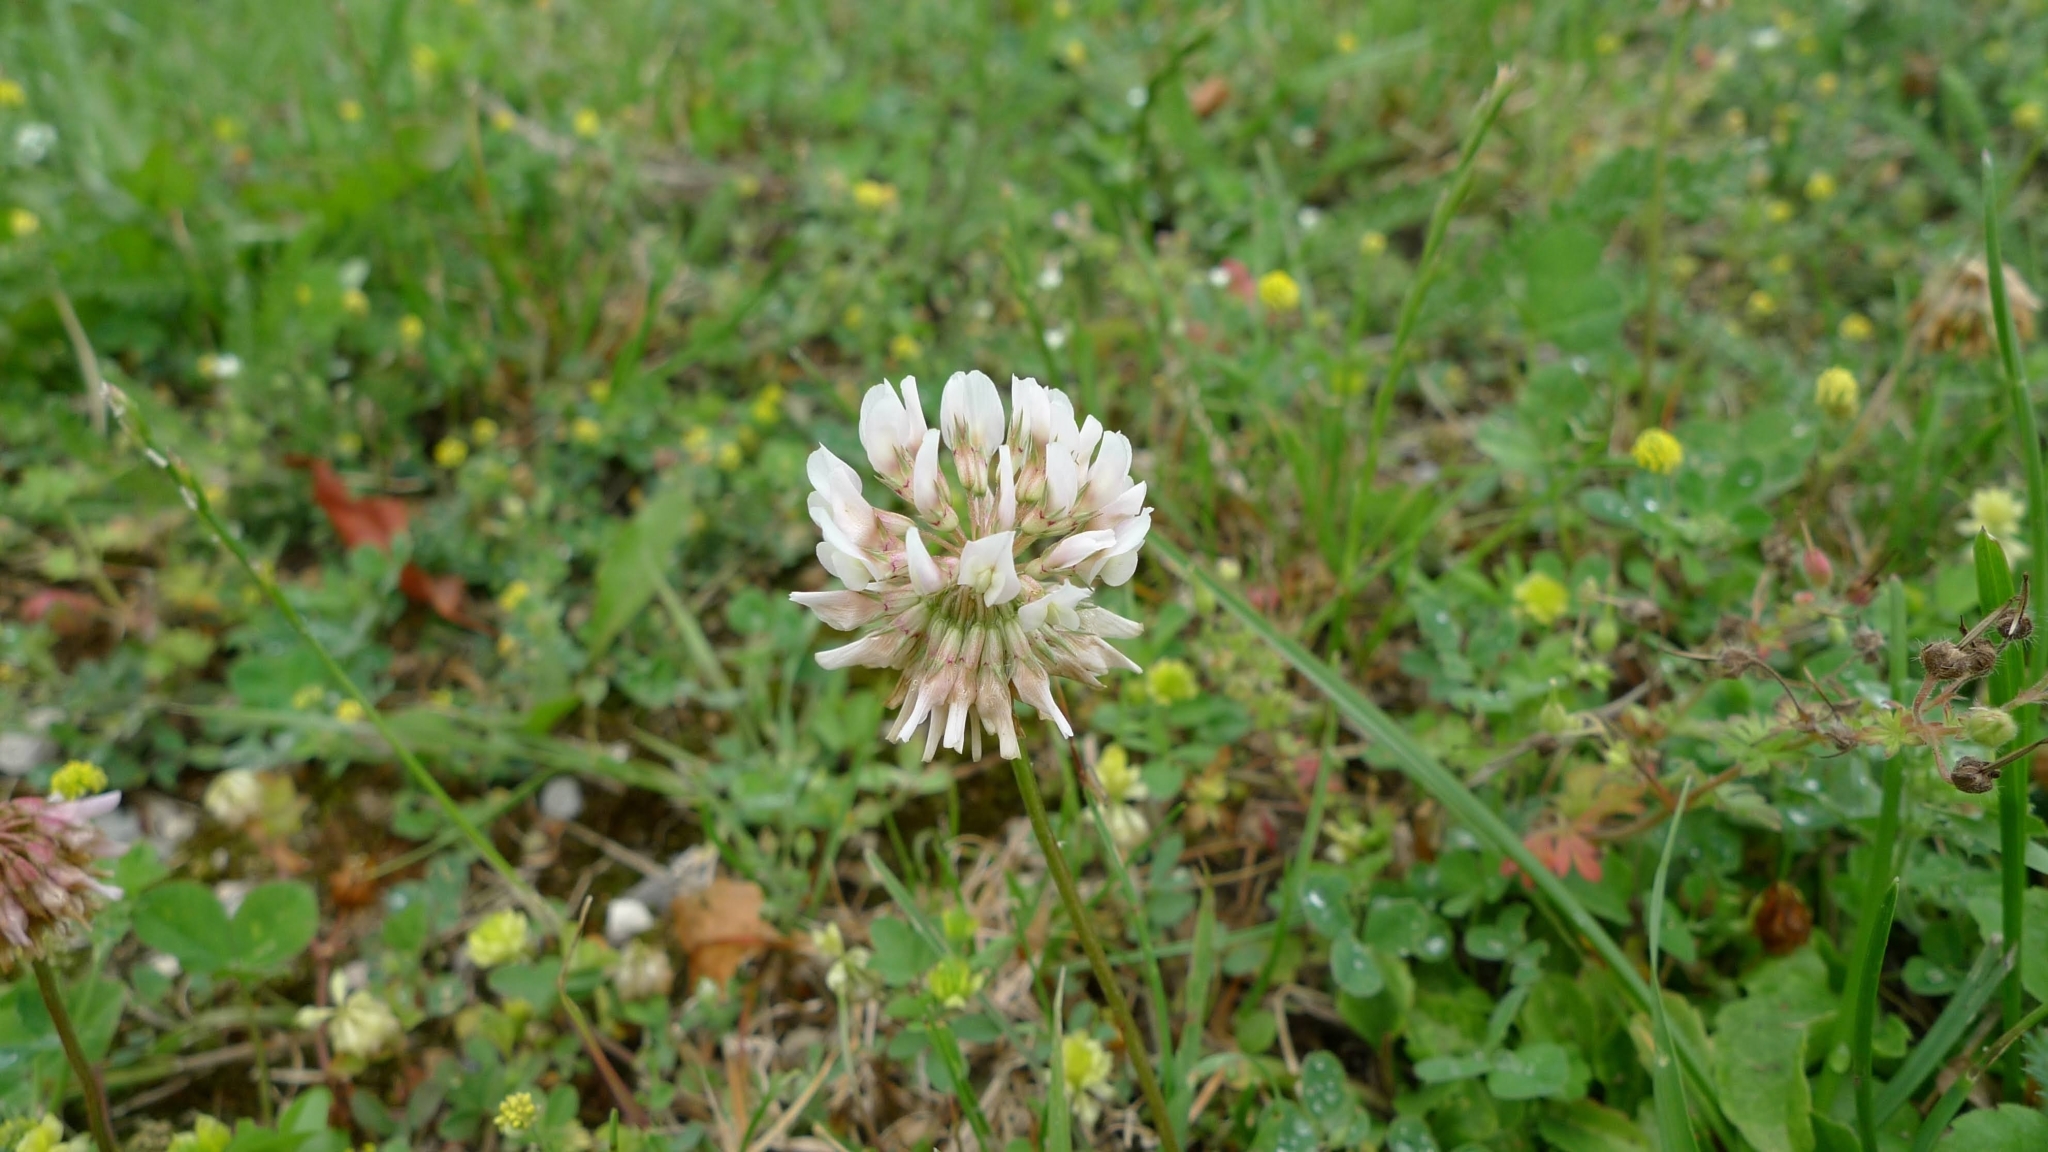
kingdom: Plantae
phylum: Tracheophyta
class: Magnoliopsida
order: Fabales
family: Fabaceae
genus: Trifolium
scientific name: Trifolium repens
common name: White clover
